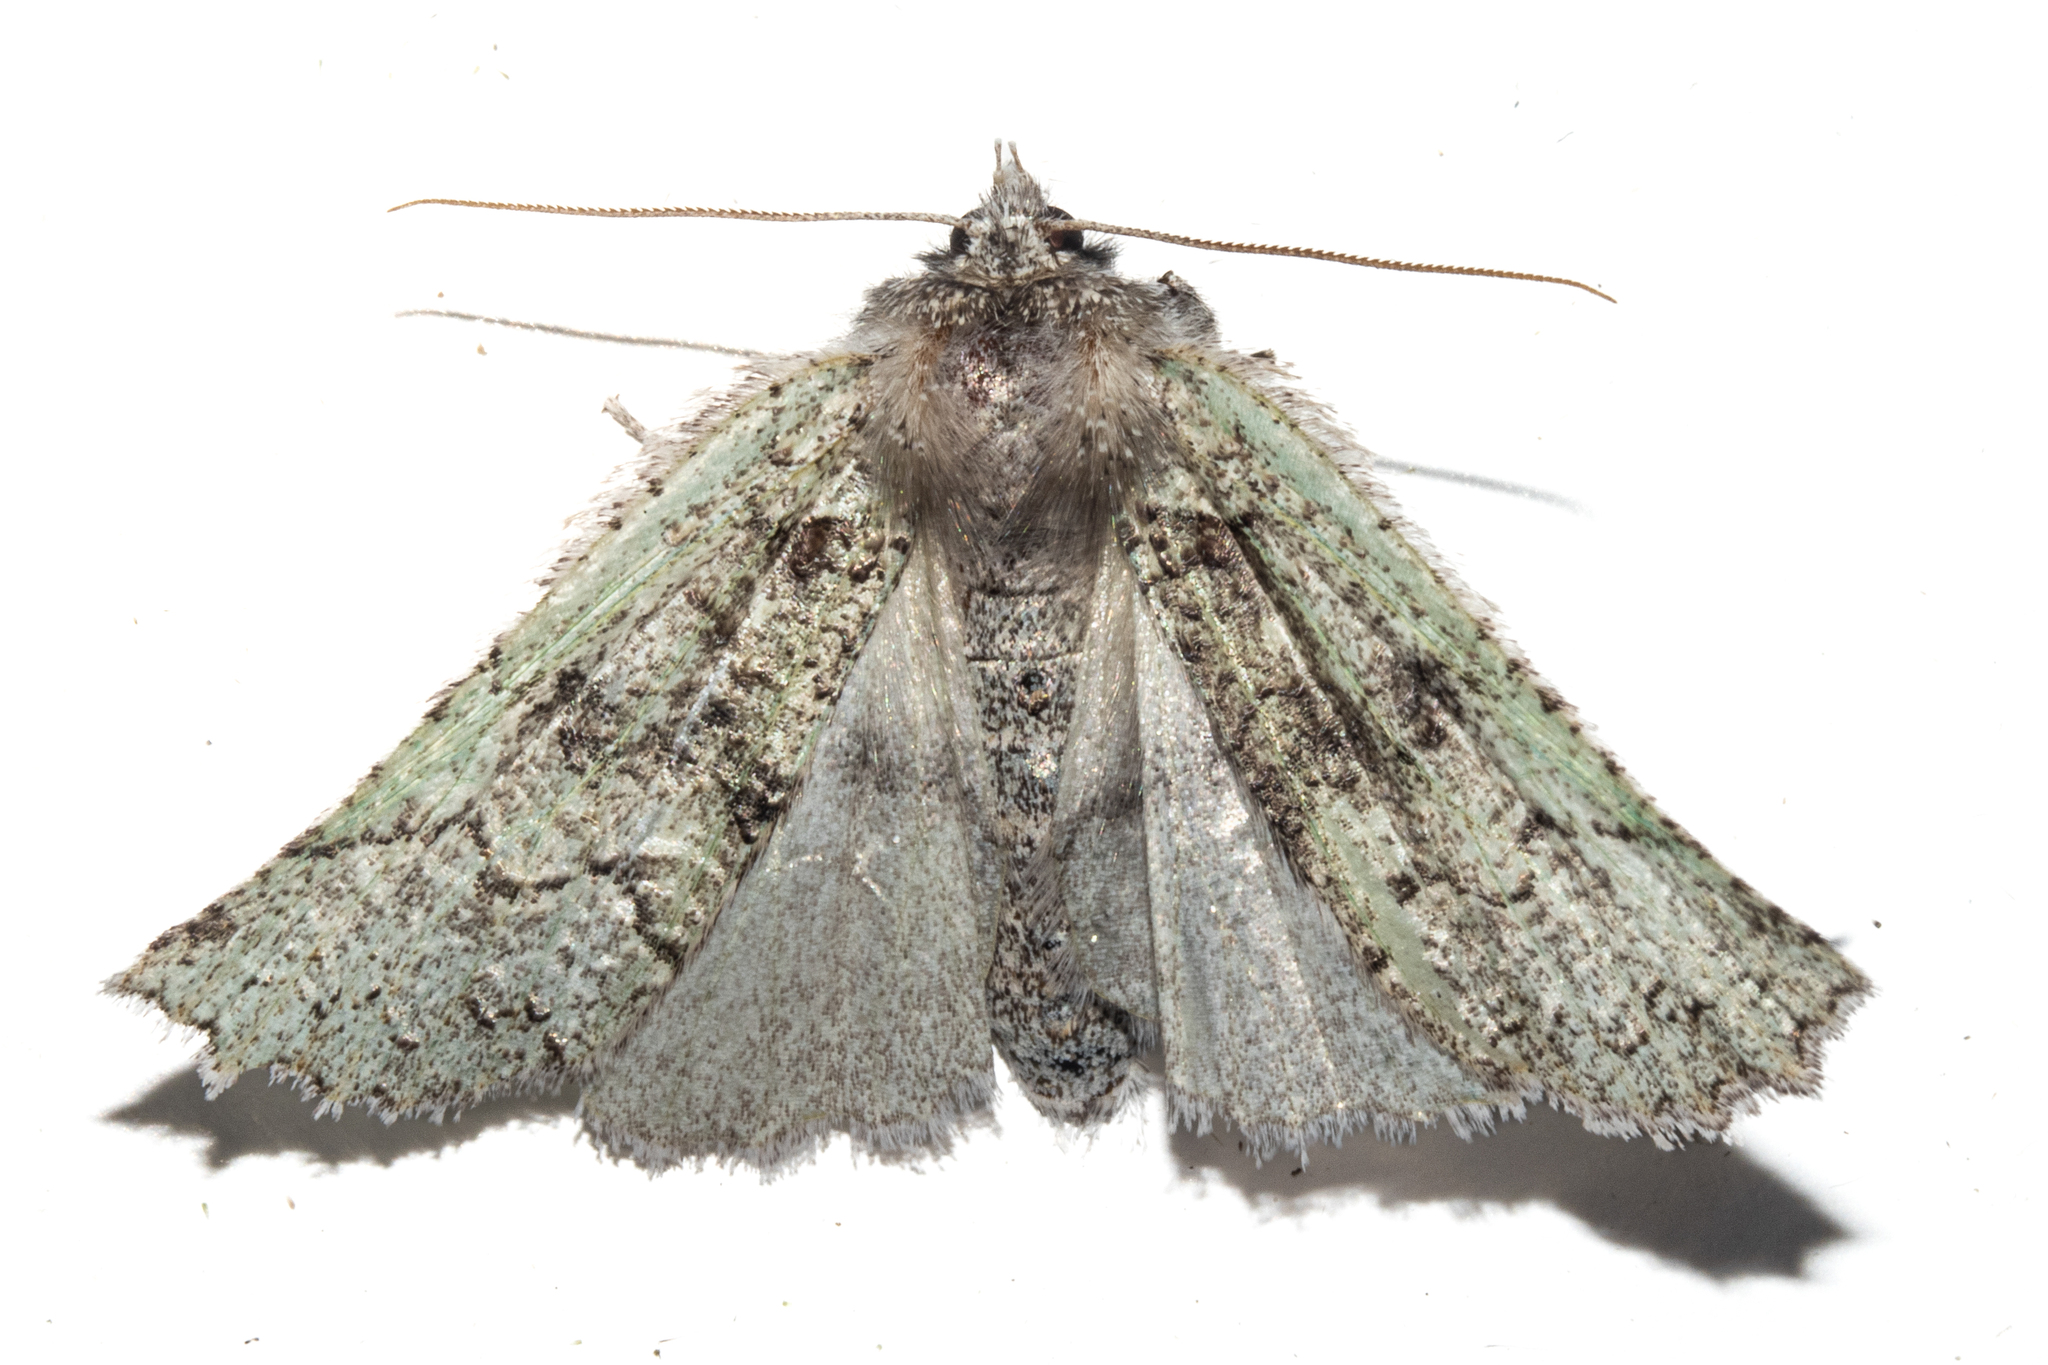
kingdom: Animalia
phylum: Arthropoda
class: Insecta
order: Lepidoptera
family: Geometridae
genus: Declana
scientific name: Declana floccosa
